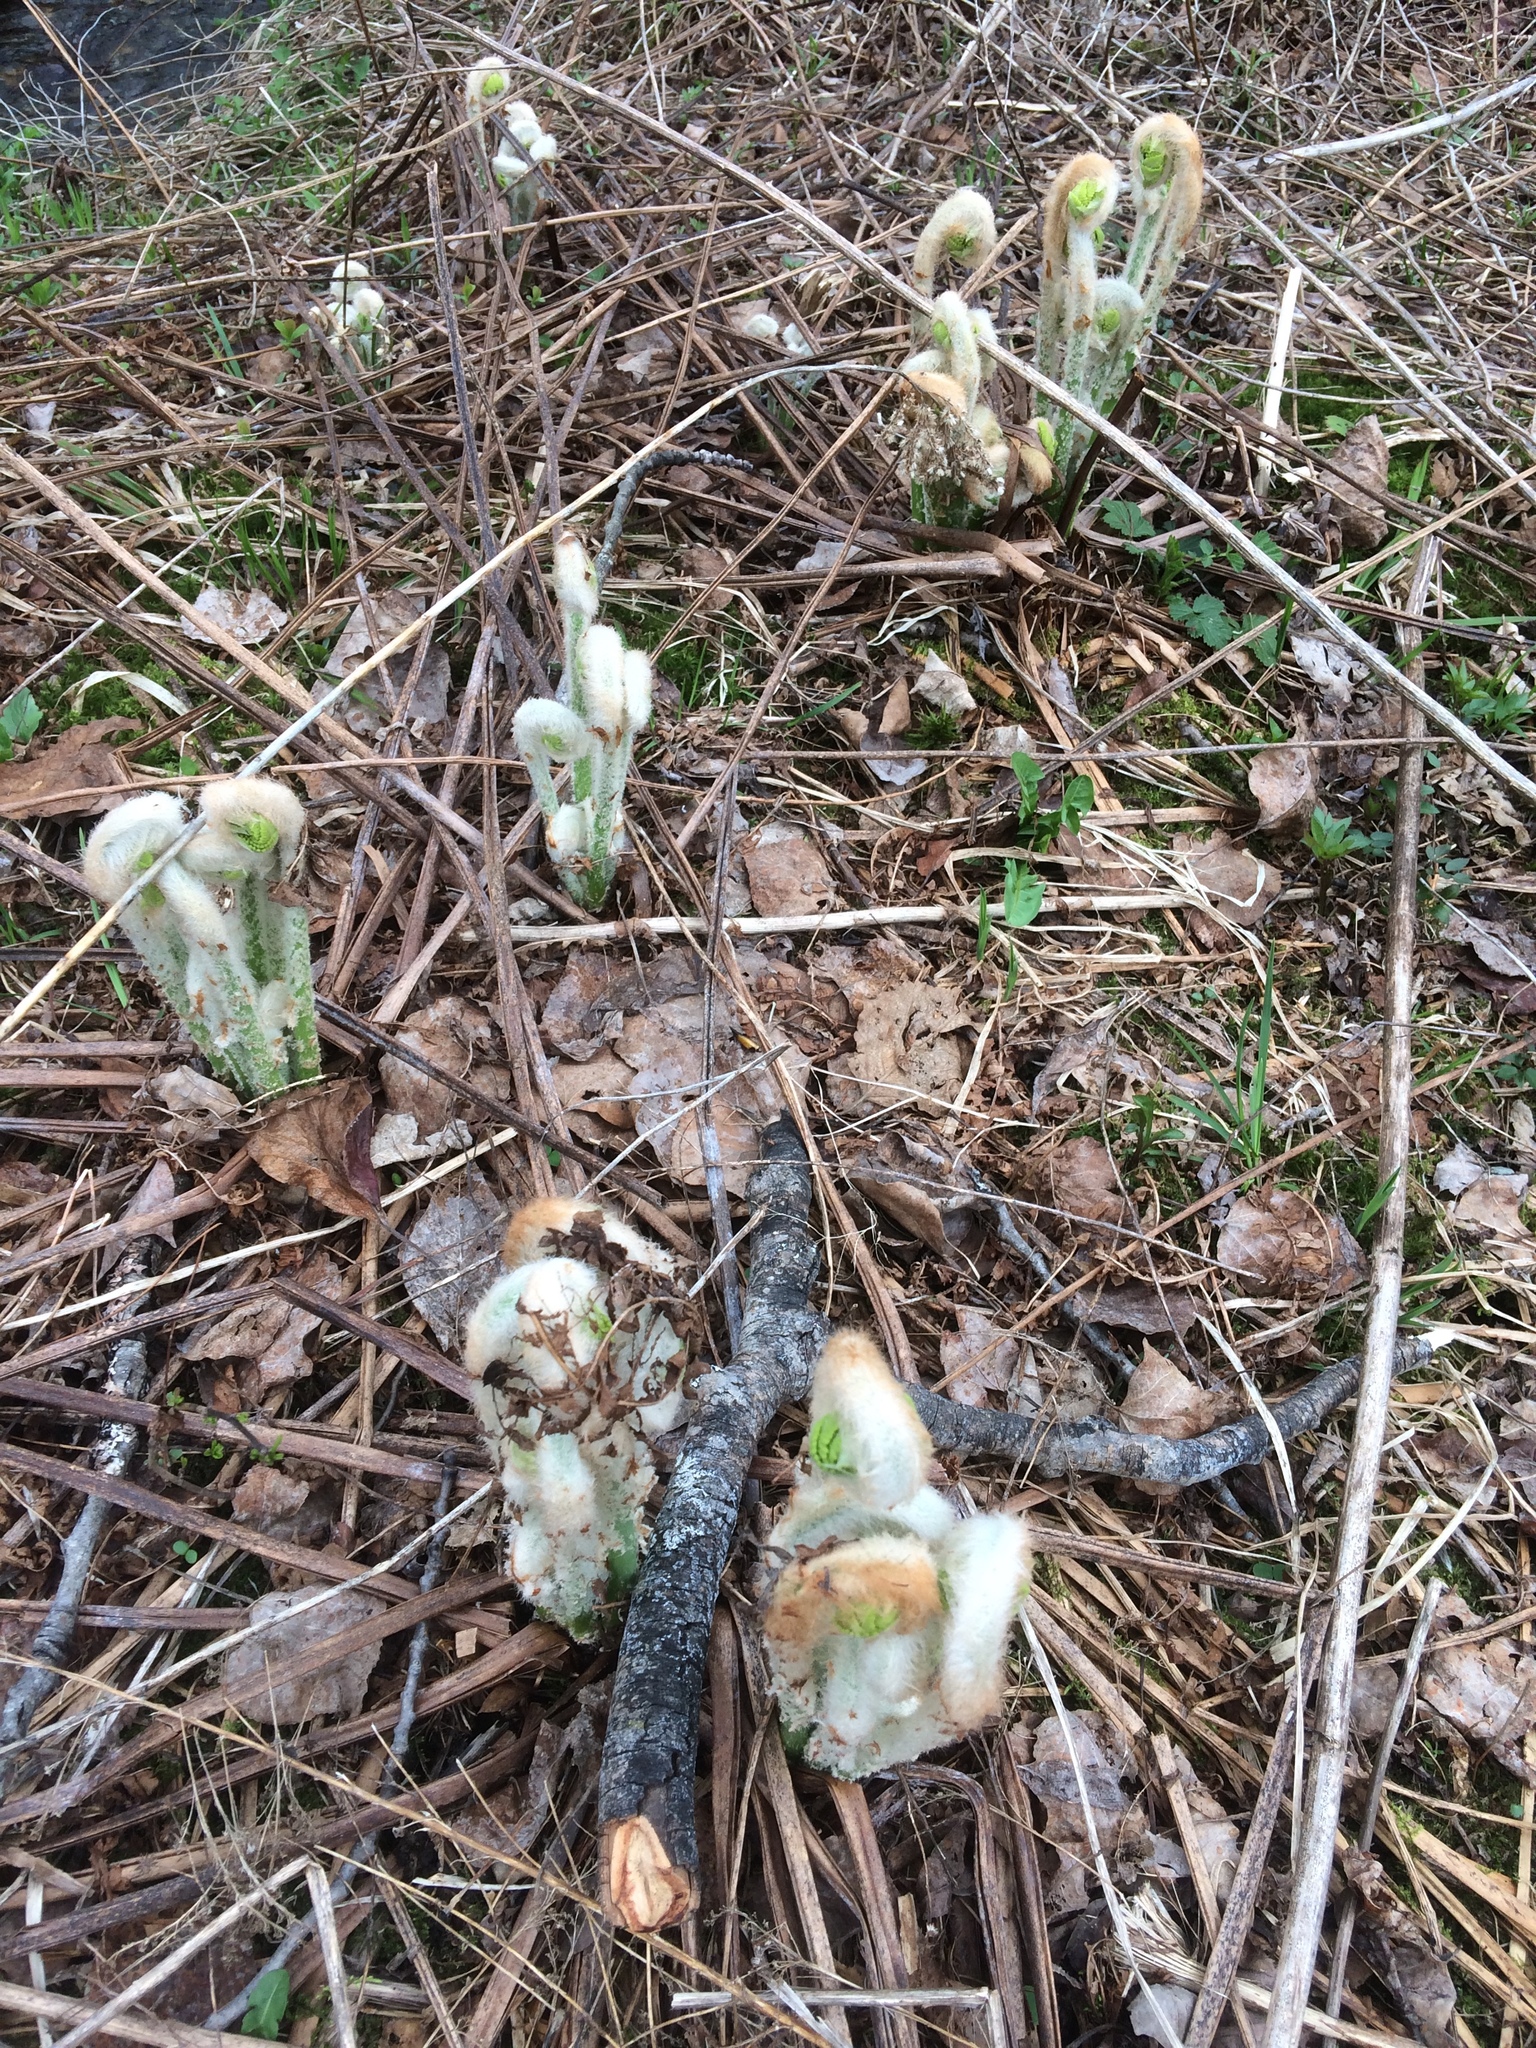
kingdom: Plantae
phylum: Tracheophyta
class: Polypodiopsida
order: Osmundales
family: Osmundaceae
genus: Osmundastrum
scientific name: Osmundastrum cinnamomeum
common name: Cinnamon fern
